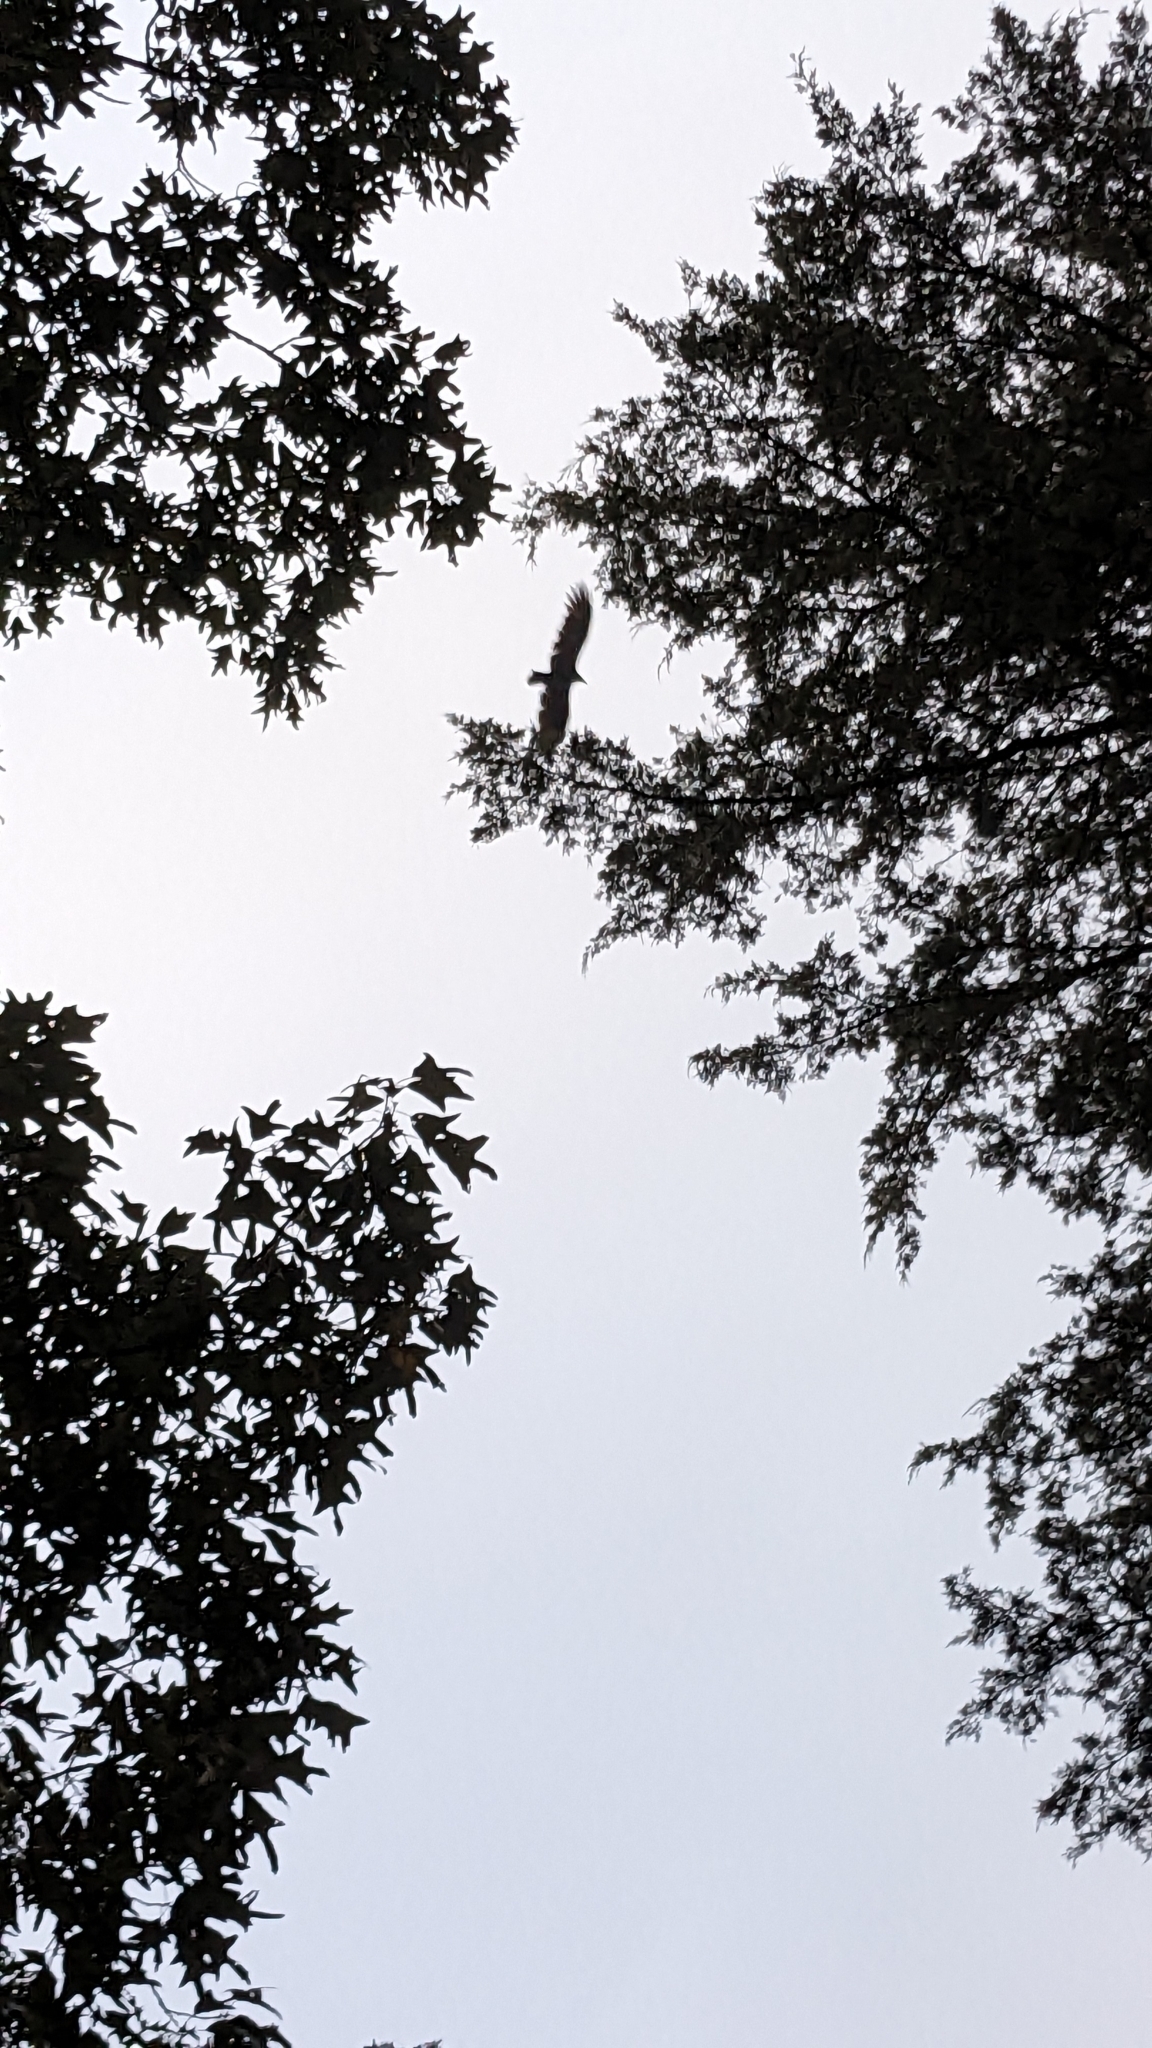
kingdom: Animalia
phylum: Chordata
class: Aves
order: Accipitriformes
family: Cathartidae
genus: Cathartes
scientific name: Cathartes aura
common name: Turkey vulture
